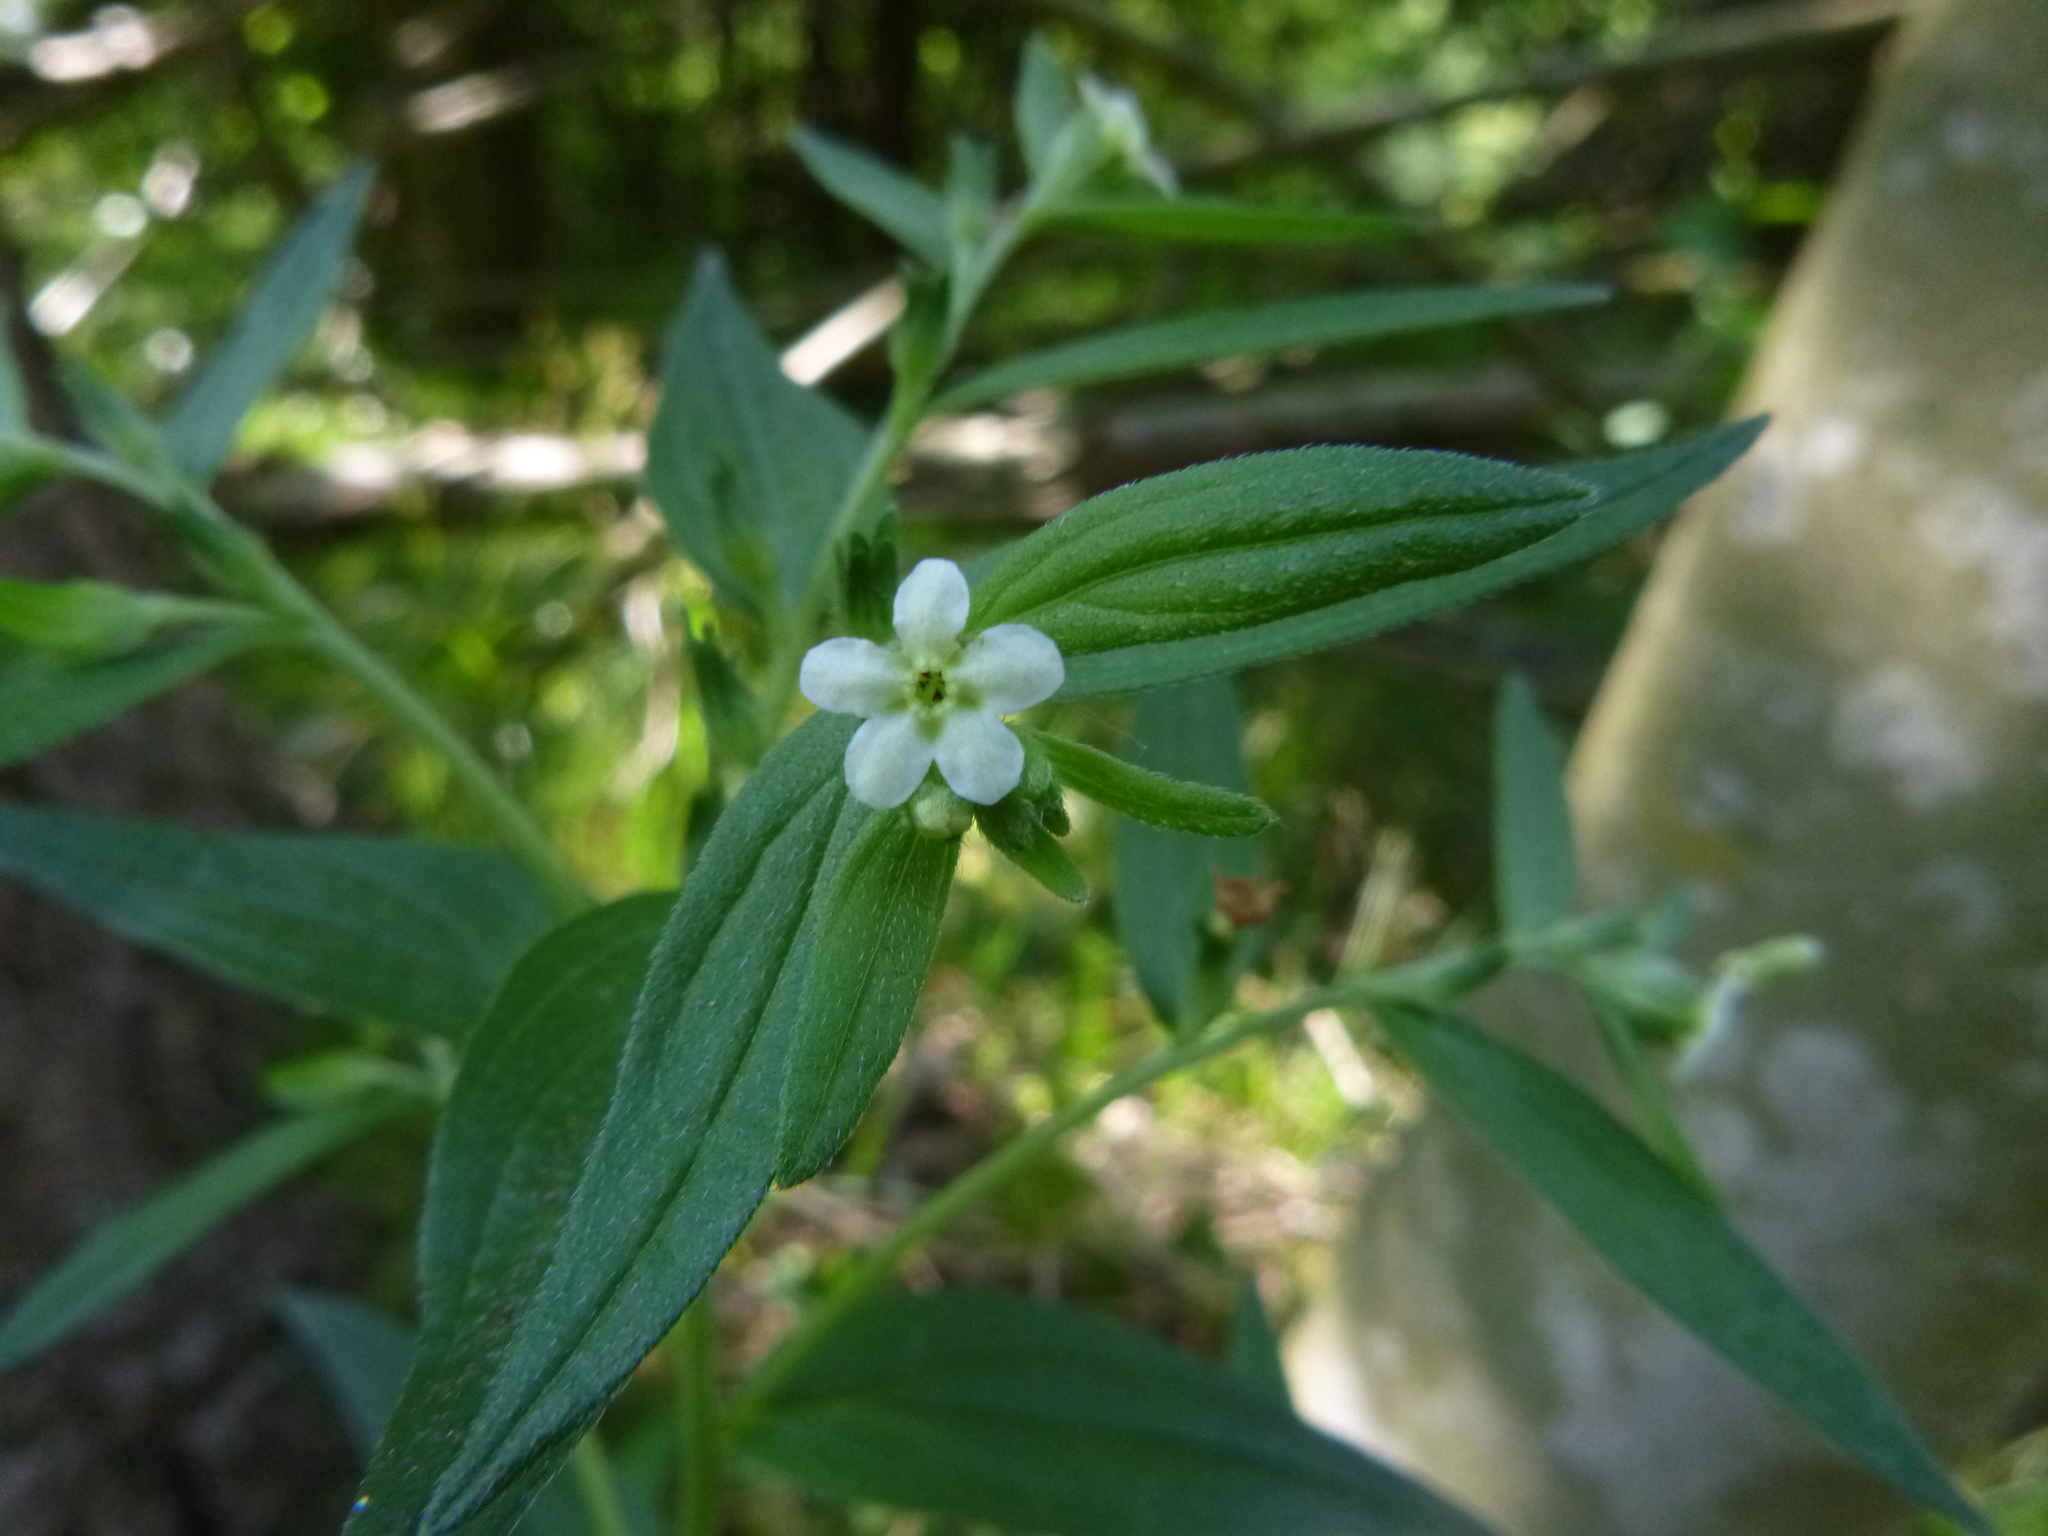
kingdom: Plantae
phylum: Tracheophyta
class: Magnoliopsida
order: Boraginales
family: Boraginaceae
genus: Lithospermum
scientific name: Lithospermum officinale
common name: Common gromwell
